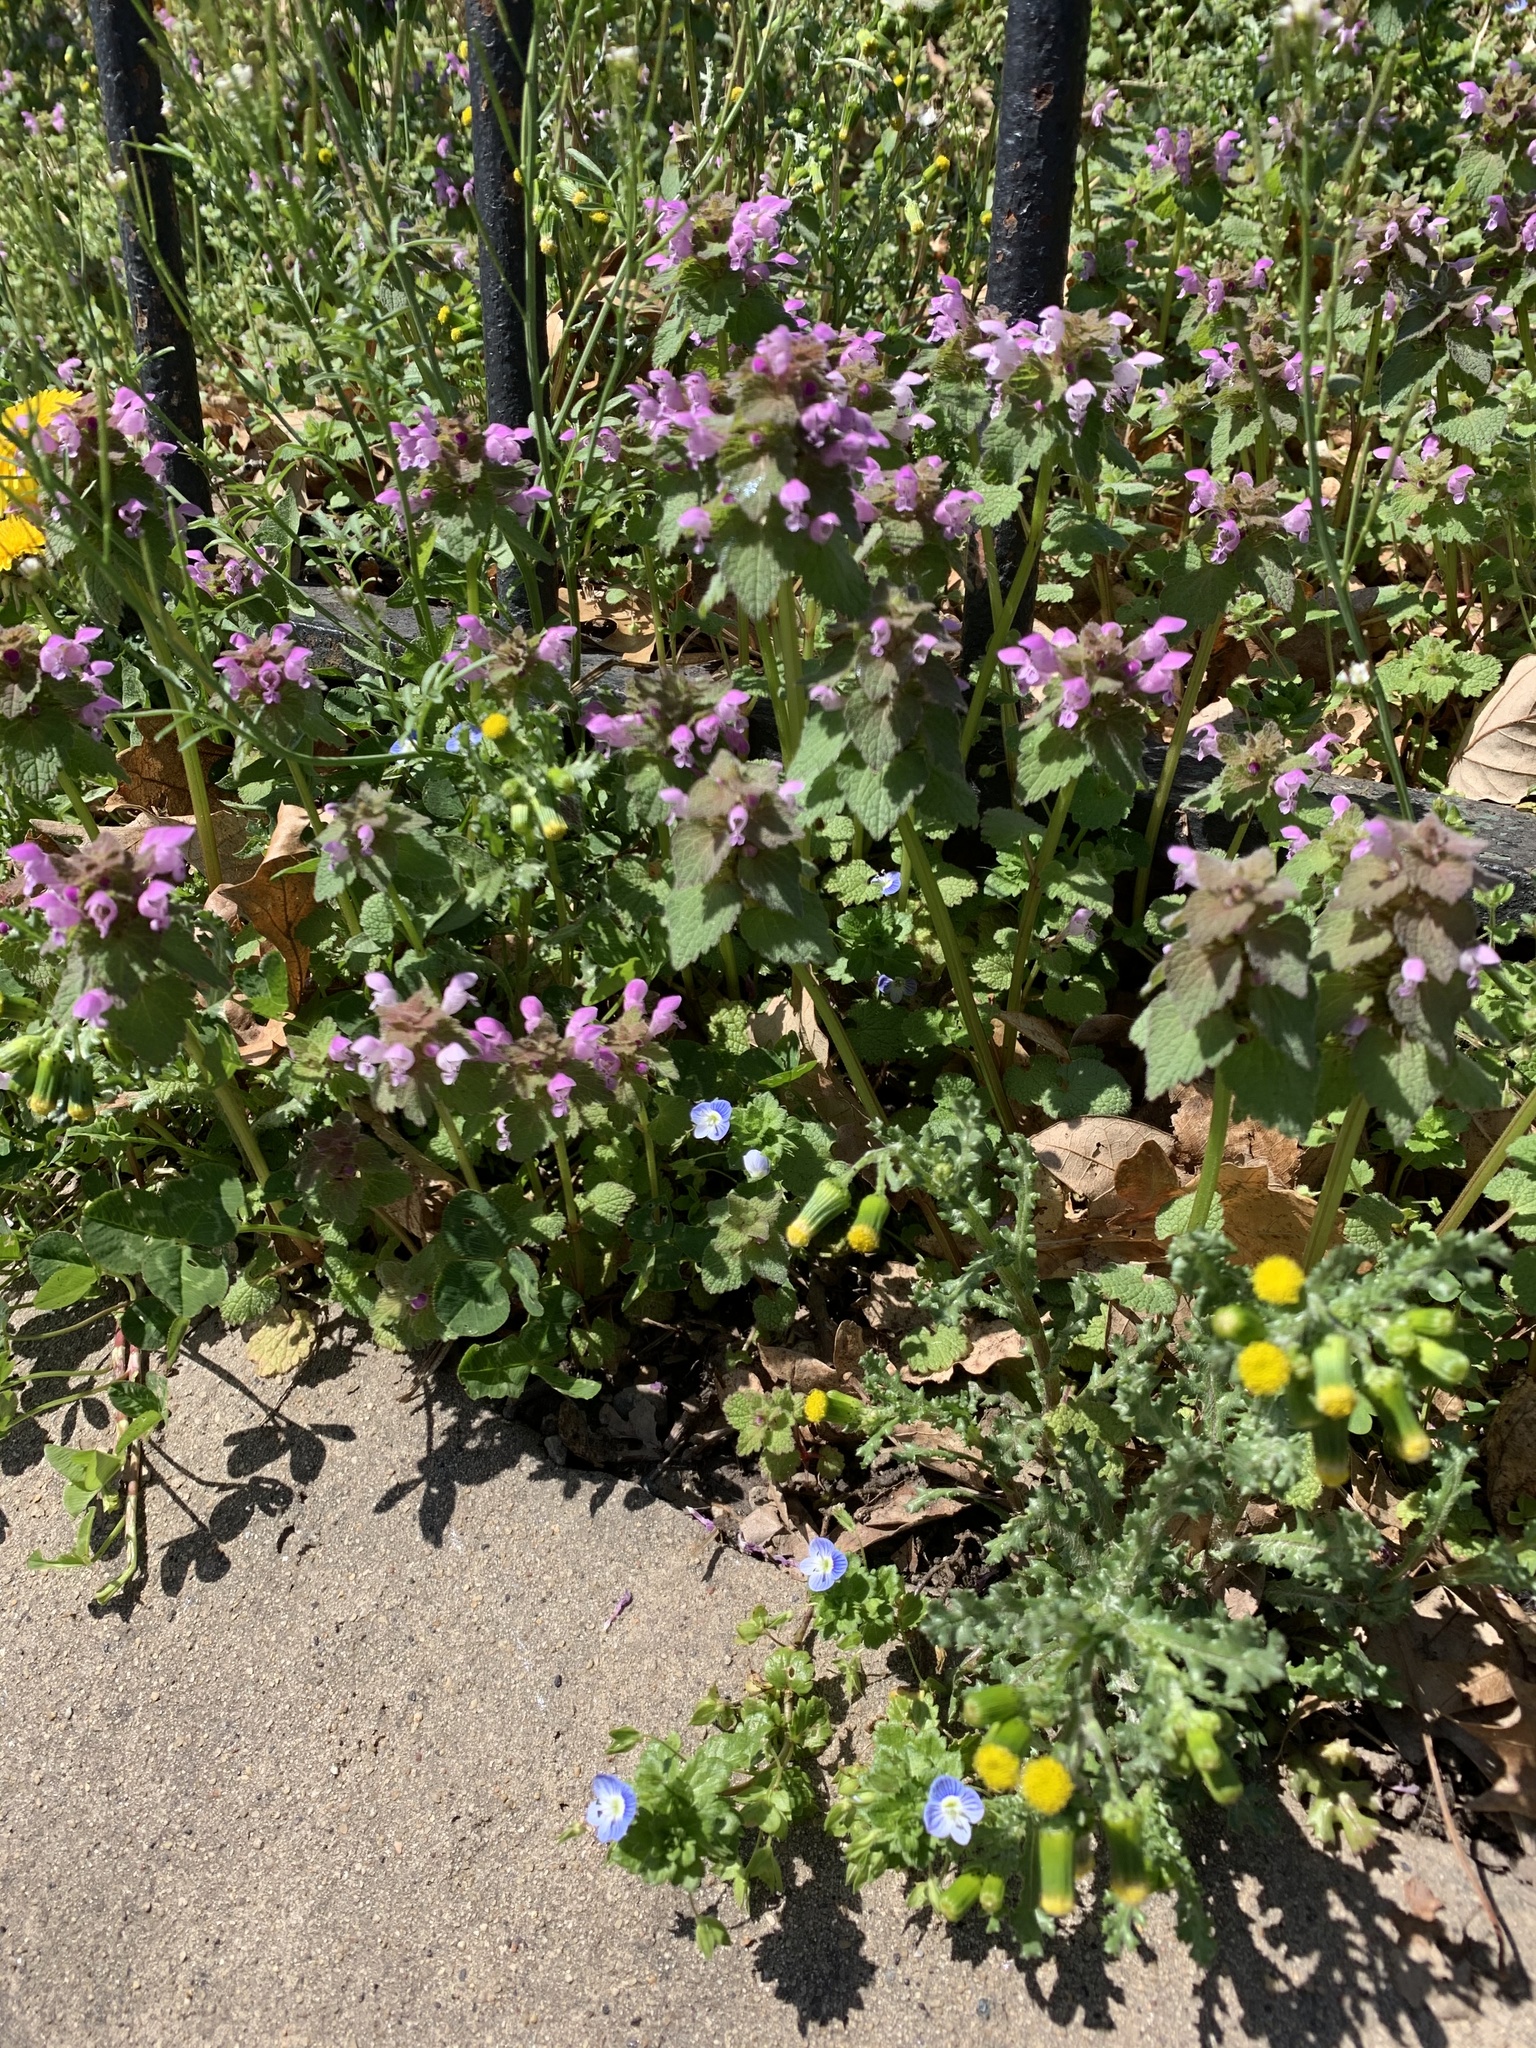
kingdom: Plantae
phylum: Tracheophyta
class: Magnoliopsida
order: Lamiales
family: Lamiaceae
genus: Lamium
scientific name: Lamium purpureum
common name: Red dead-nettle
